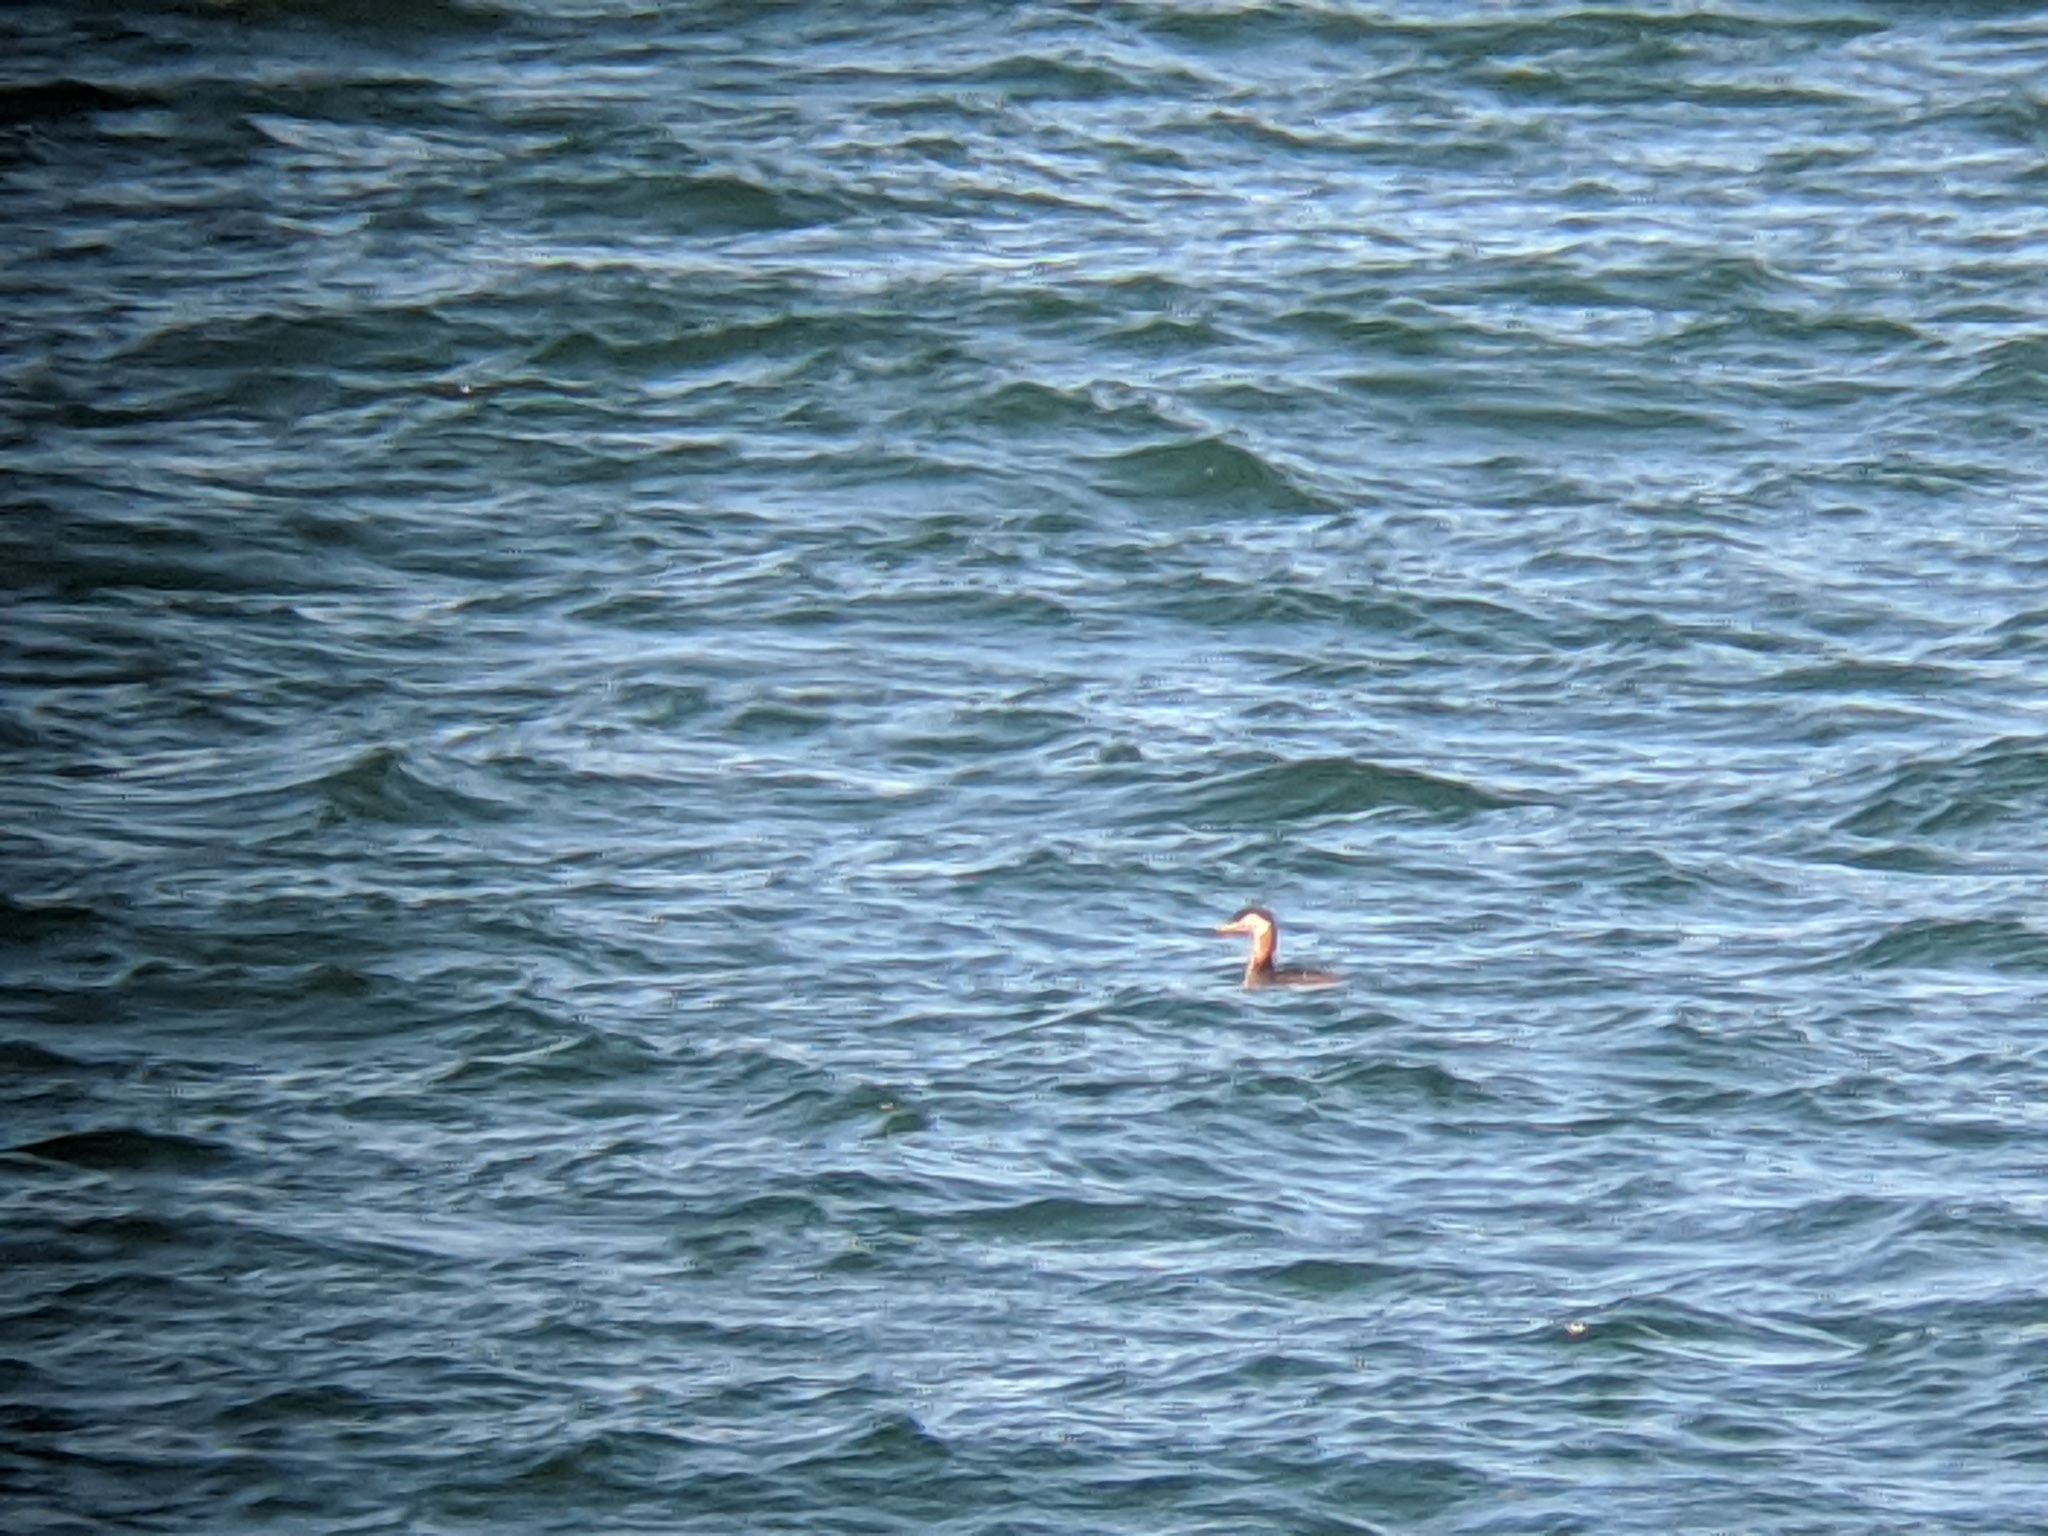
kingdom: Animalia
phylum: Chordata
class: Aves
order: Podicipediformes
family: Podicipedidae
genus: Podiceps
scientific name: Podiceps grisegena
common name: Red-necked grebe
